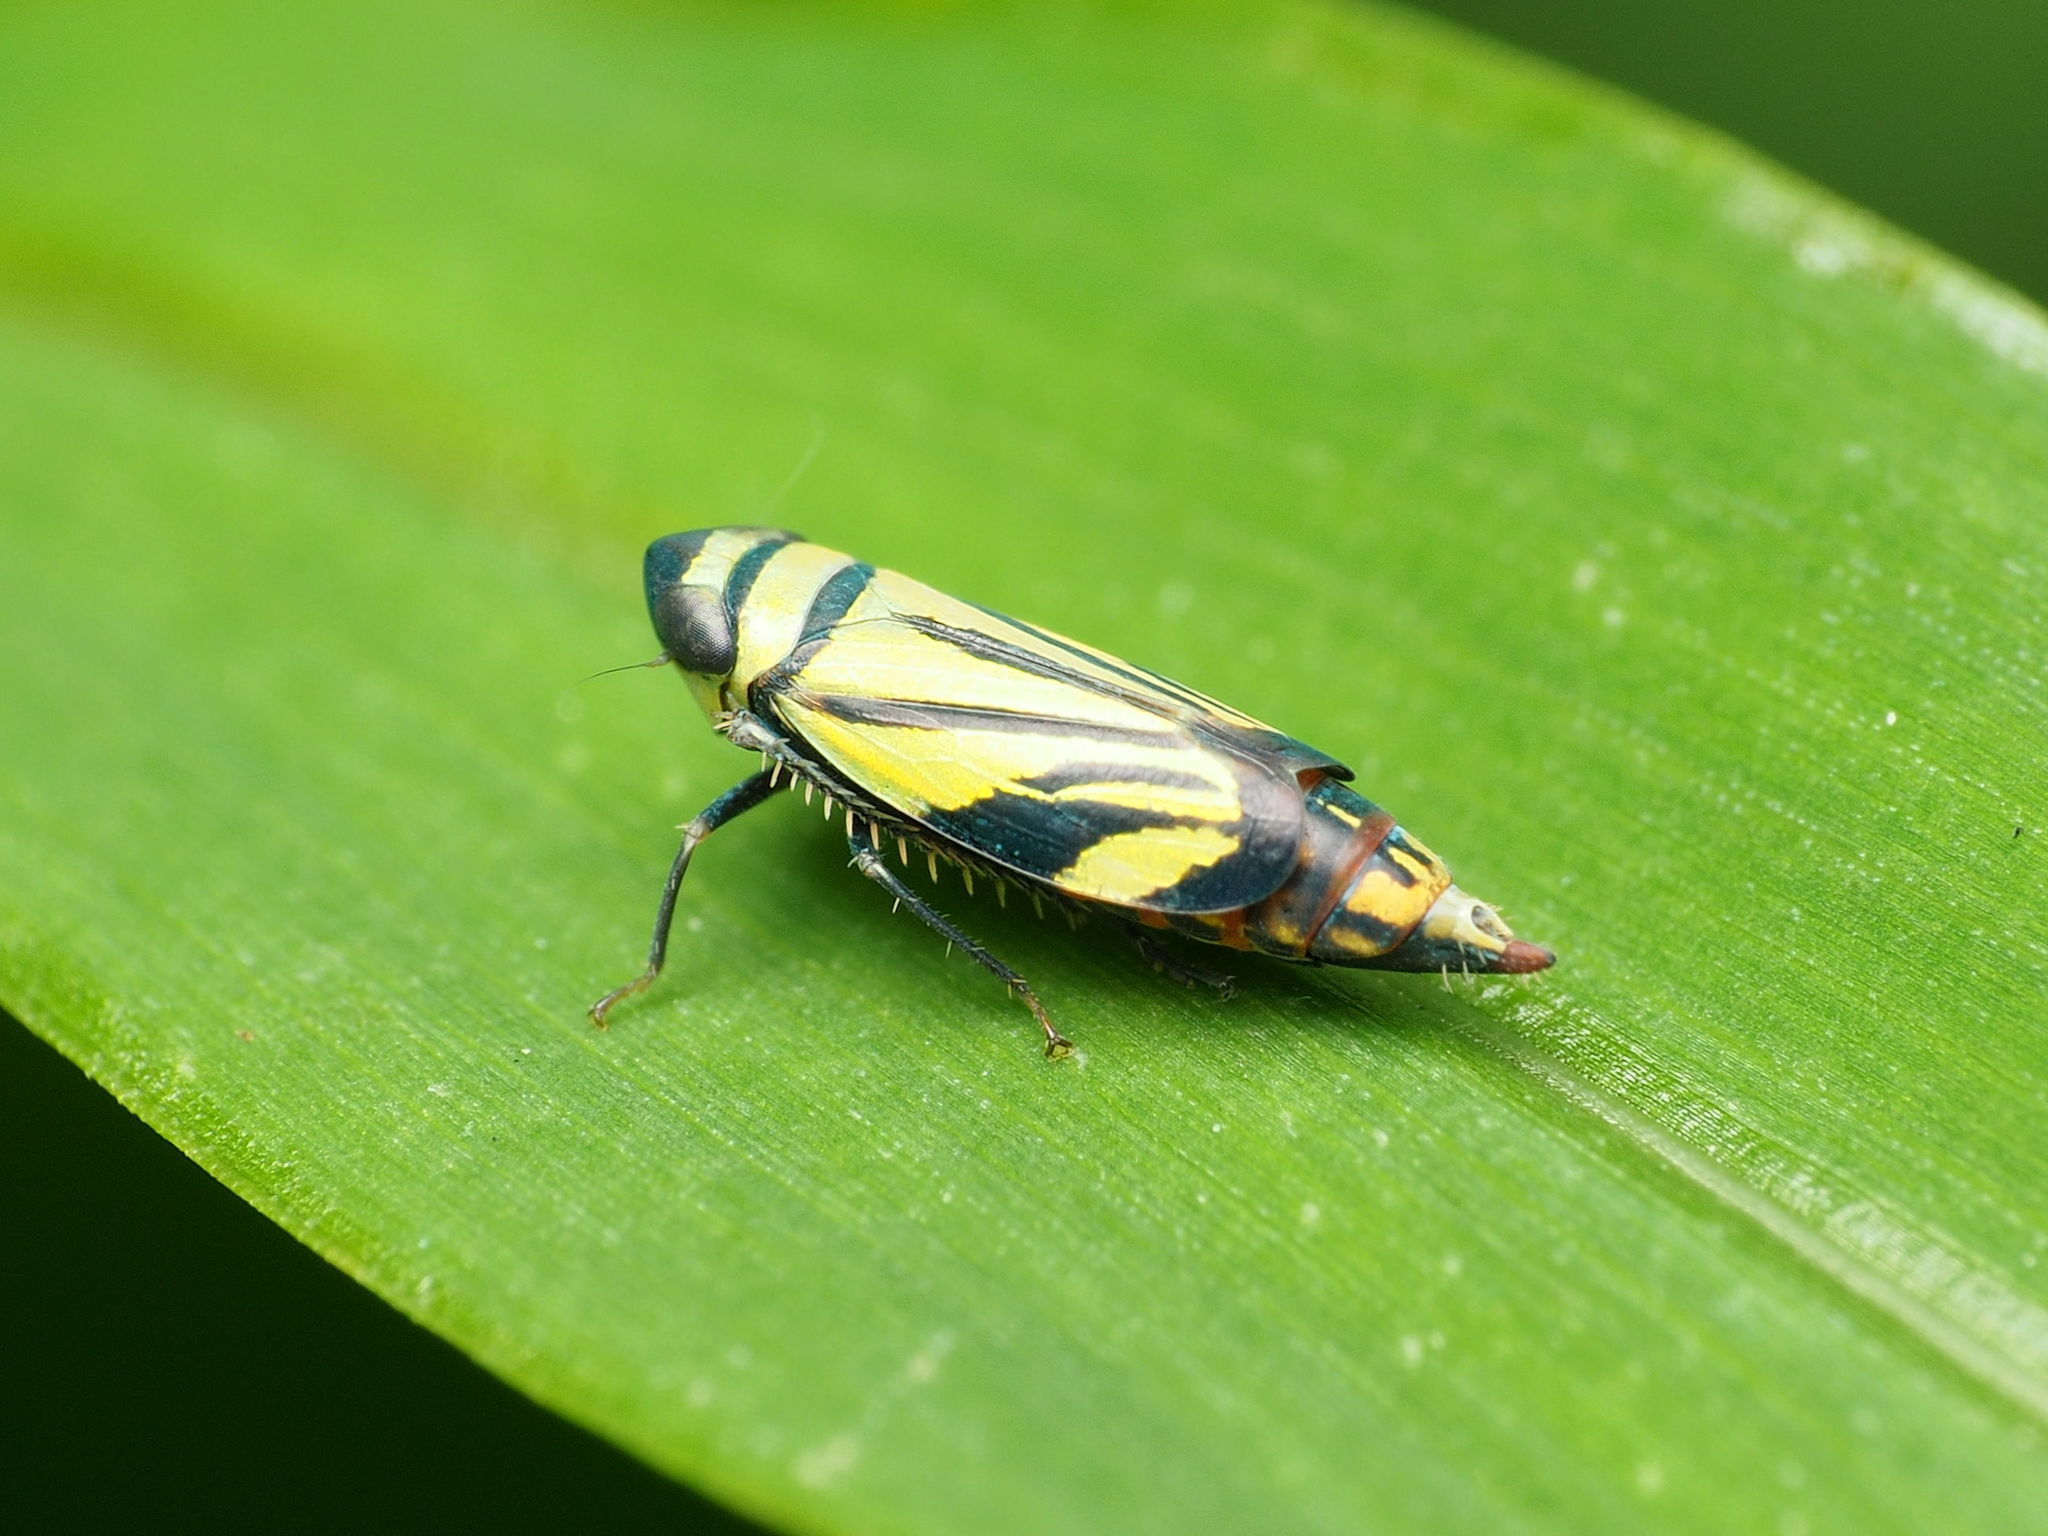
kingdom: Animalia
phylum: Arthropoda
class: Insecta
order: Hemiptera
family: Cicadellidae
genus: Stirellus
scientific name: Stirellus bicolor
